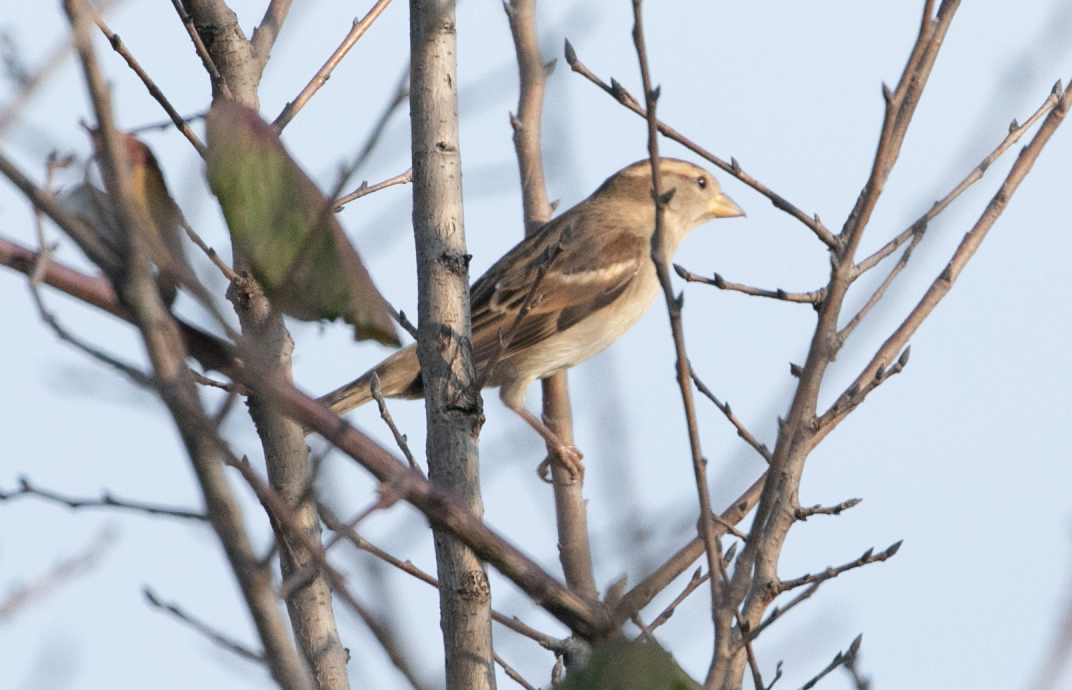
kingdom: Animalia
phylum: Chordata
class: Aves
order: Passeriformes
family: Passeridae
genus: Passer
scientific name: Passer italiae
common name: Italian sparrow
